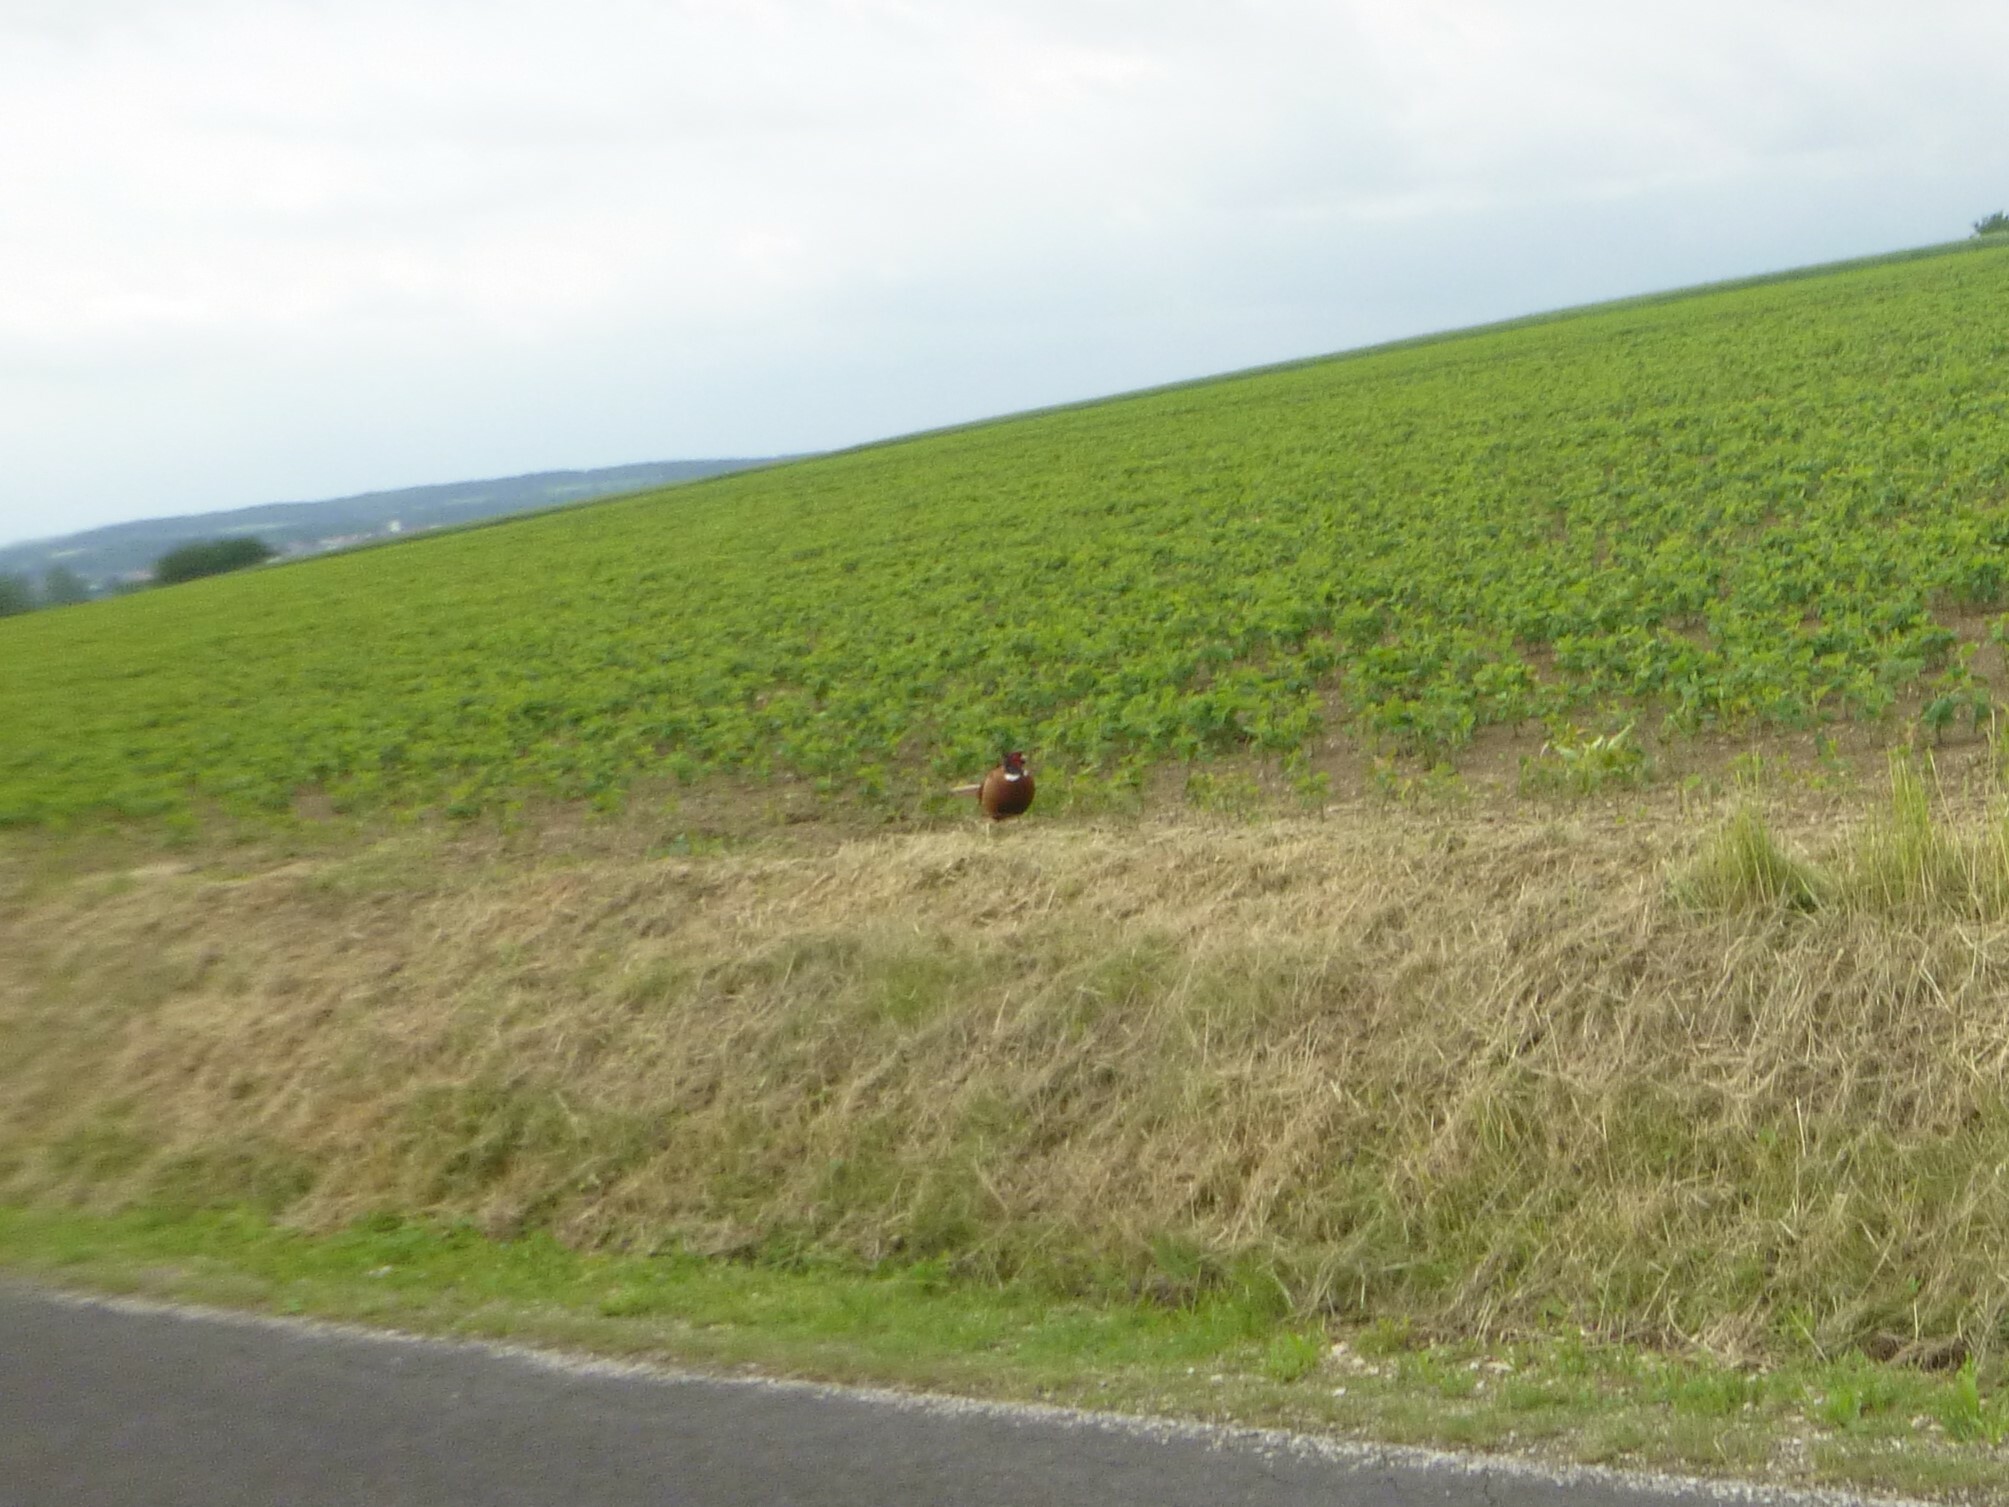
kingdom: Animalia
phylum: Chordata
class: Aves
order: Galliformes
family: Phasianidae
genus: Phasianus
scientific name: Phasianus colchicus
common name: Common pheasant
